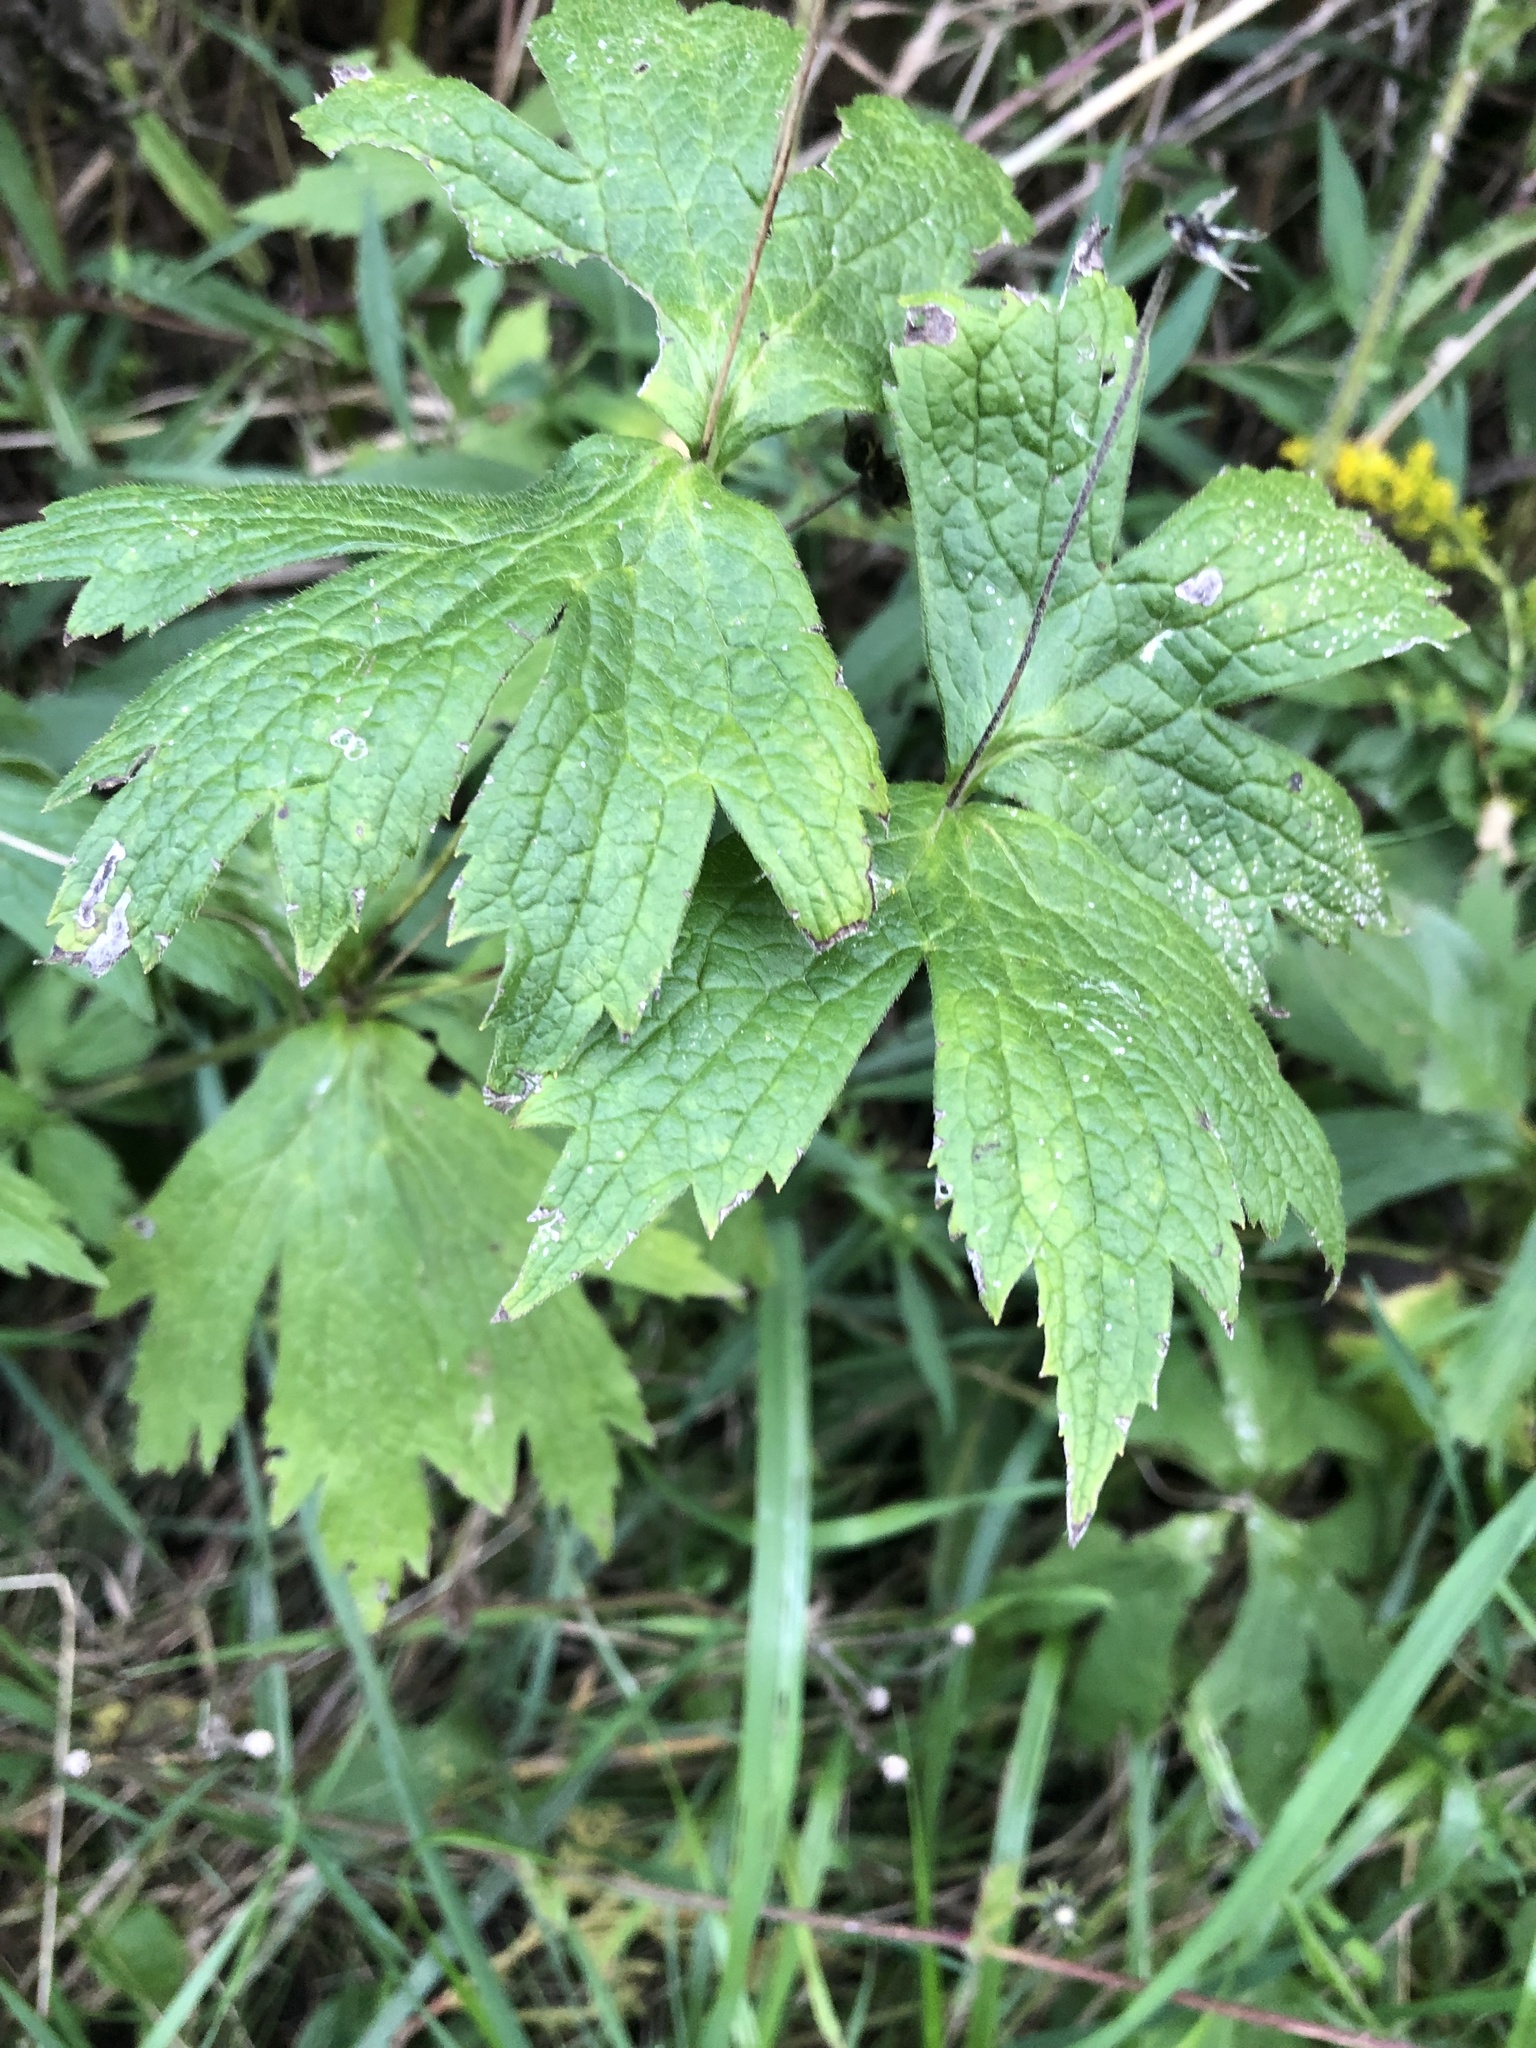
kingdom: Plantae
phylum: Tracheophyta
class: Magnoliopsida
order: Ranunculales
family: Ranunculaceae
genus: Anemonastrum
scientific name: Anemonastrum canadense
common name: Canada anemone
